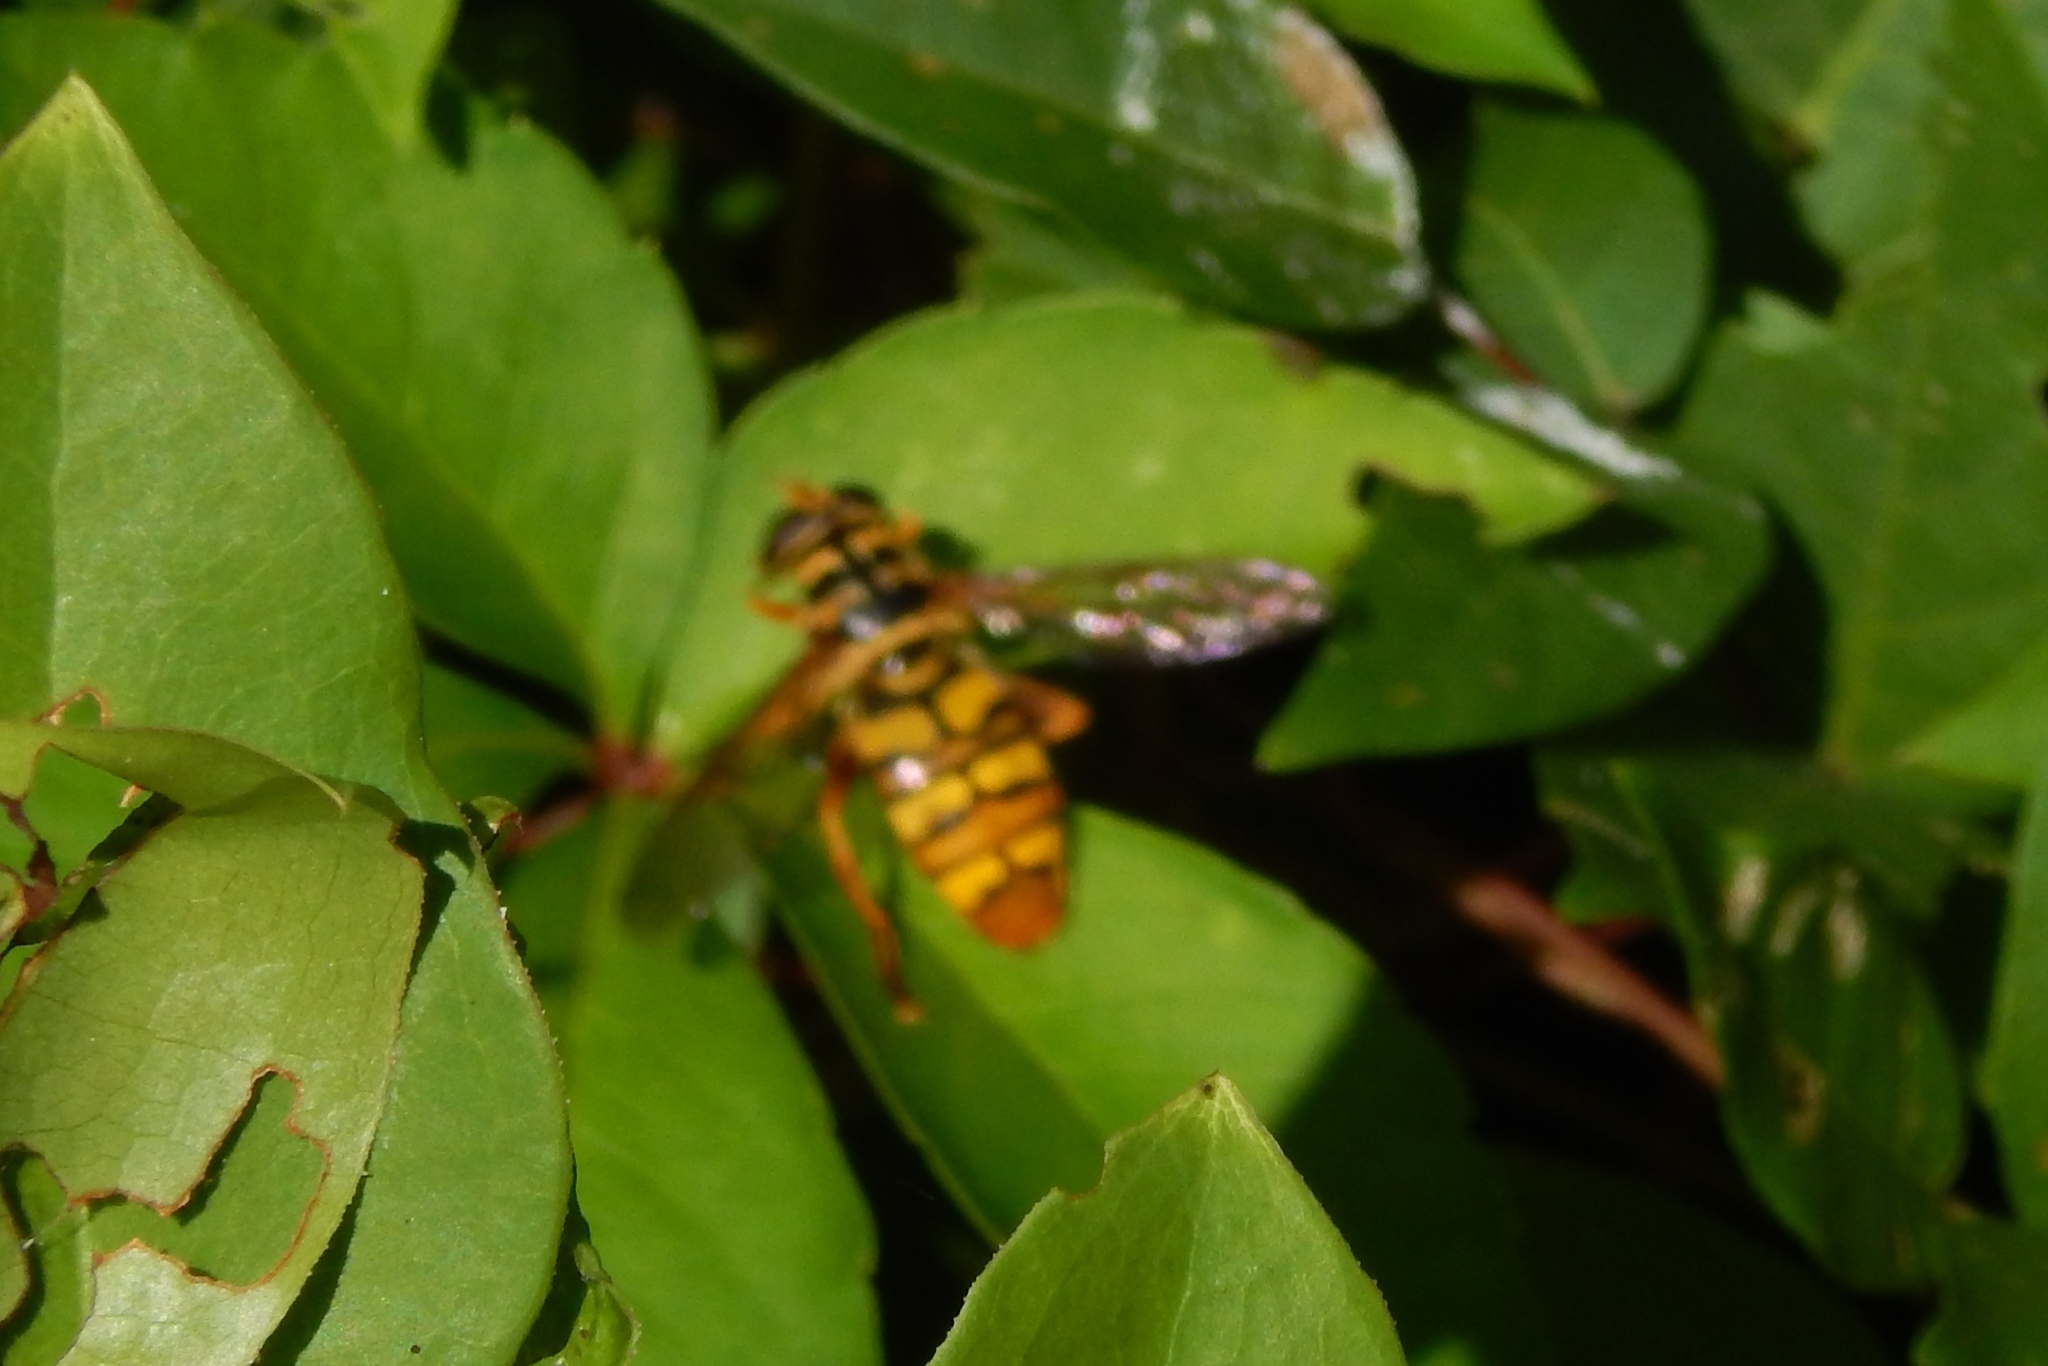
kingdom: Animalia
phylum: Arthropoda
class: Insecta
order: Diptera
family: Syrphidae
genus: Milesia
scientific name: Milesia virginiensis
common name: Virginia giant
